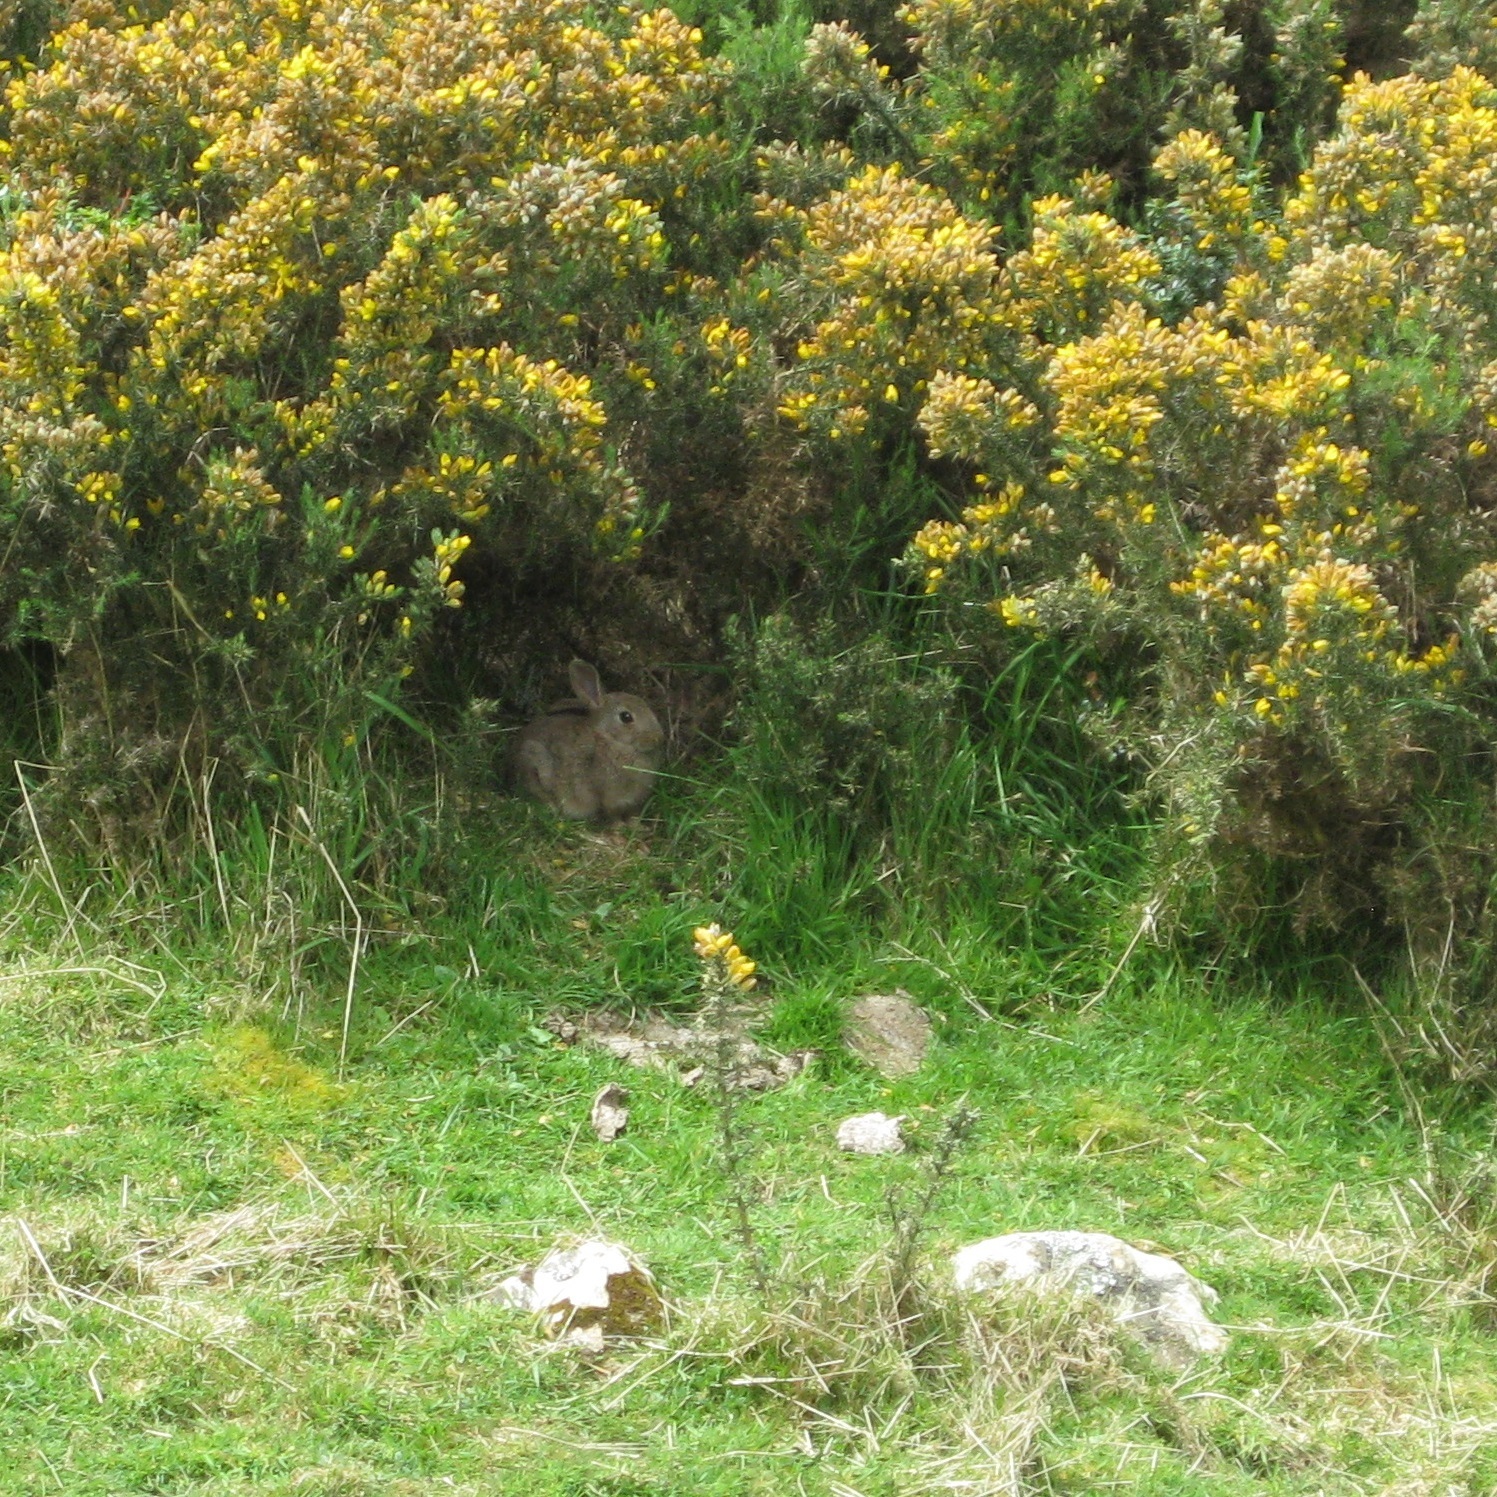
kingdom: Animalia
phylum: Chordata
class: Mammalia
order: Lagomorpha
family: Leporidae
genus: Oryctolagus
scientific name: Oryctolagus cuniculus
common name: European rabbit
